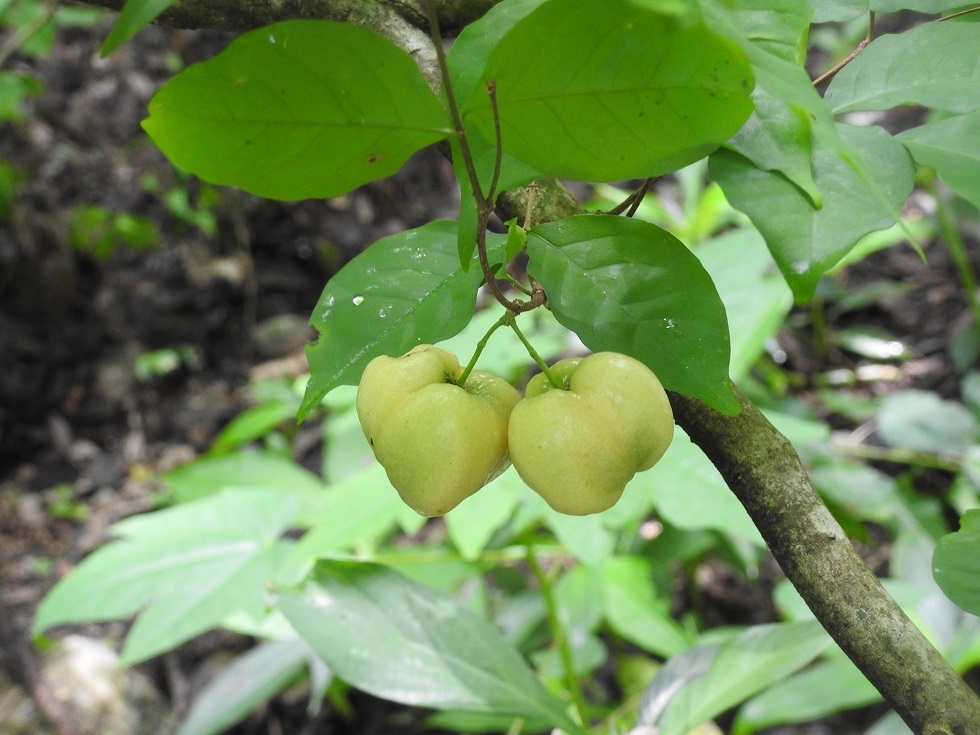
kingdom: Plantae
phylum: Tracheophyta
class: Magnoliopsida
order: Malpighiales
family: Malpighiaceae
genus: Malpighia
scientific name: Malpighia glabra
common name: Barbados cherry
